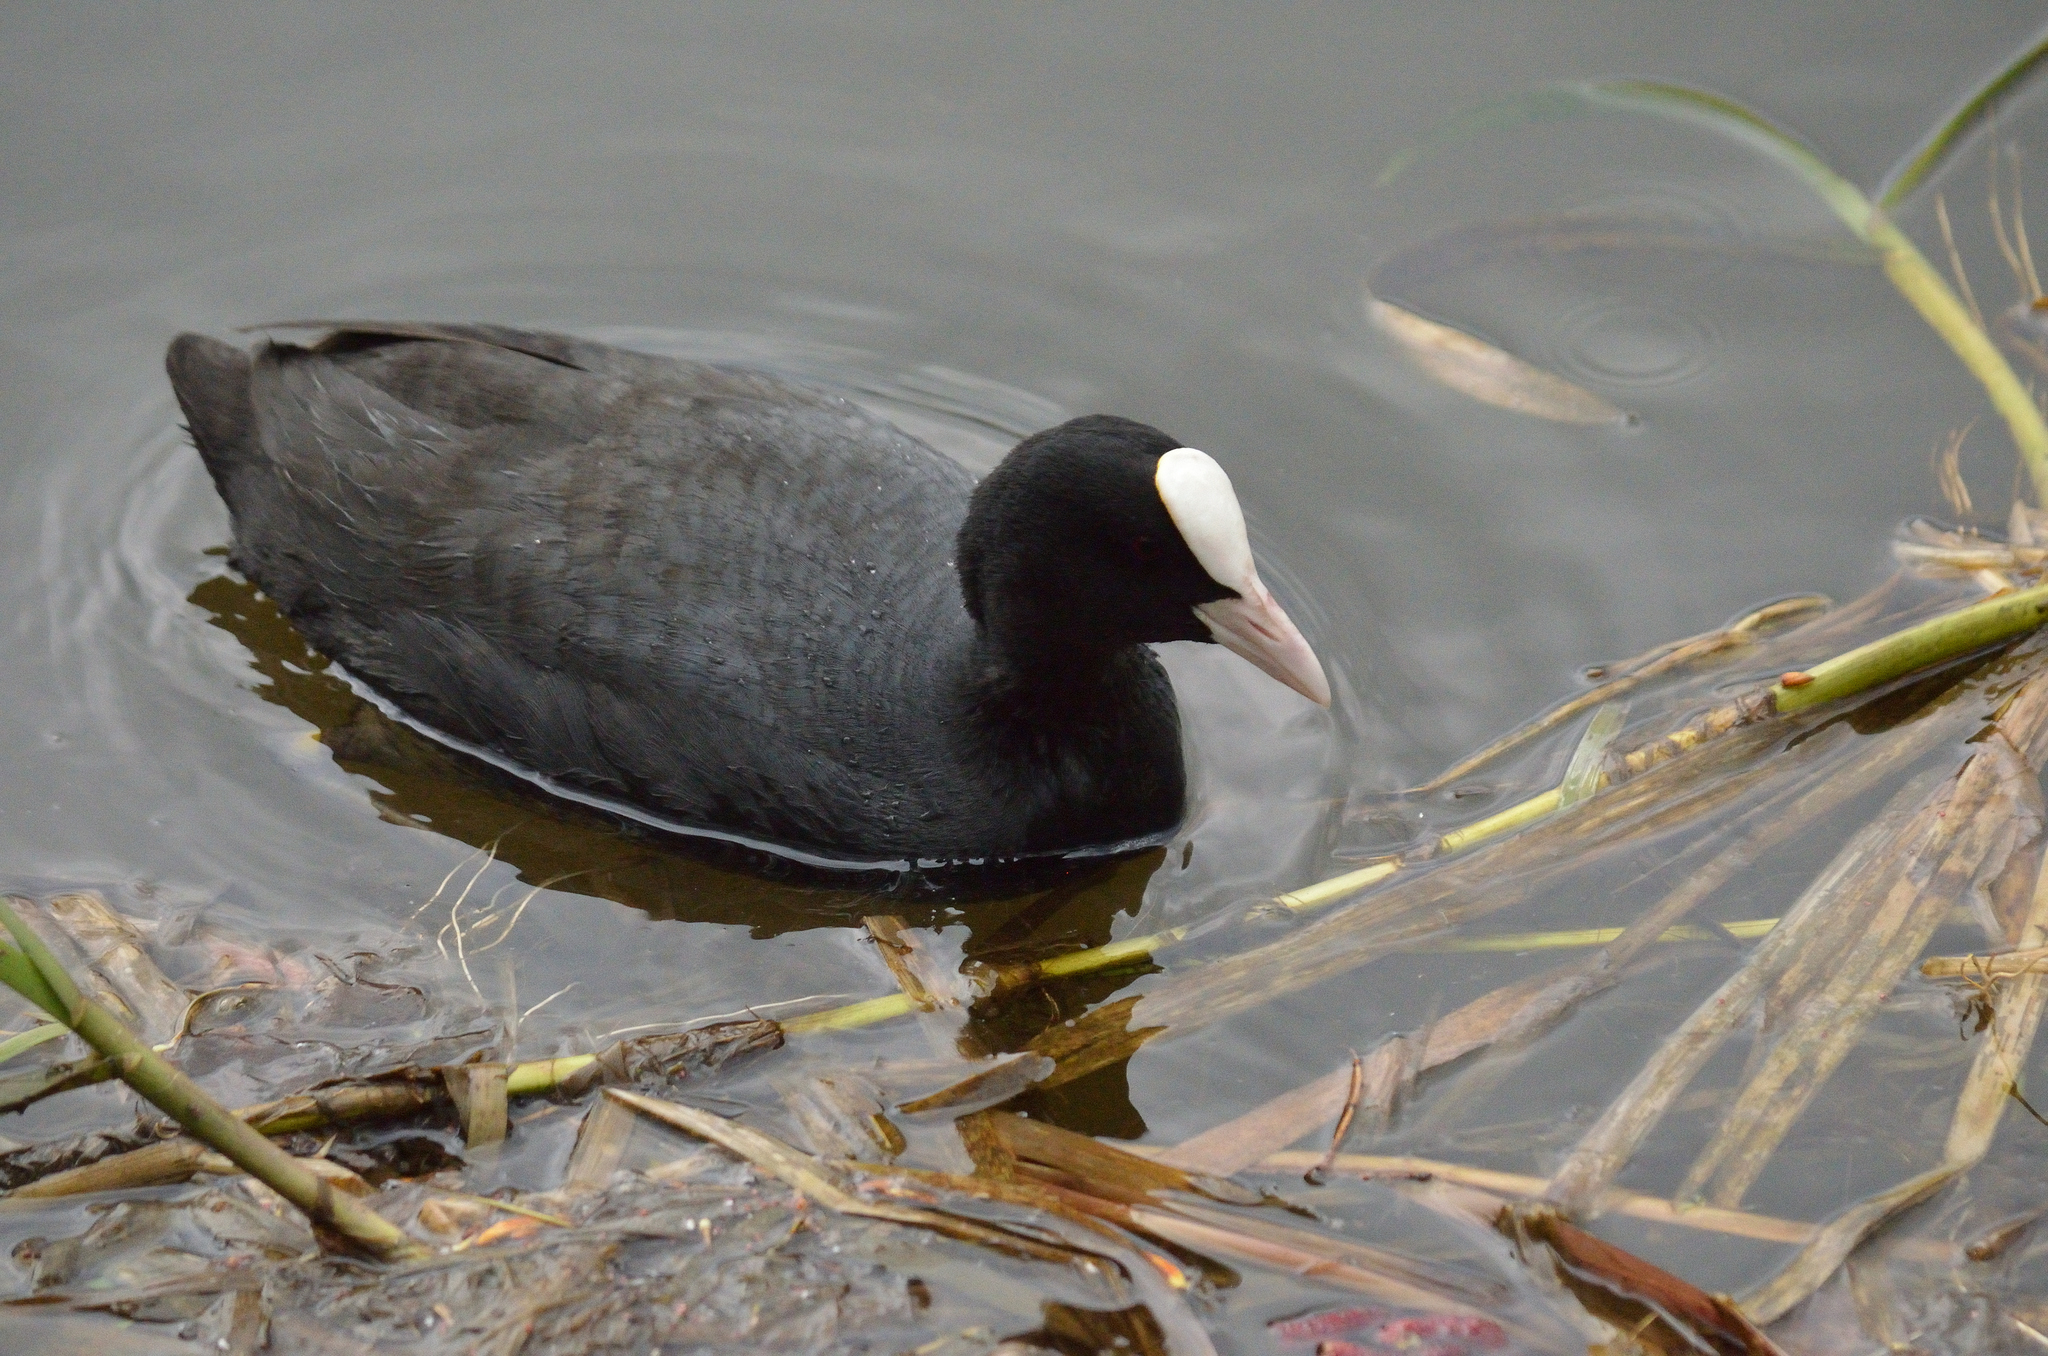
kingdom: Animalia
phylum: Chordata
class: Aves
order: Gruiformes
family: Rallidae
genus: Fulica
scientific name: Fulica atra
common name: Eurasian coot
